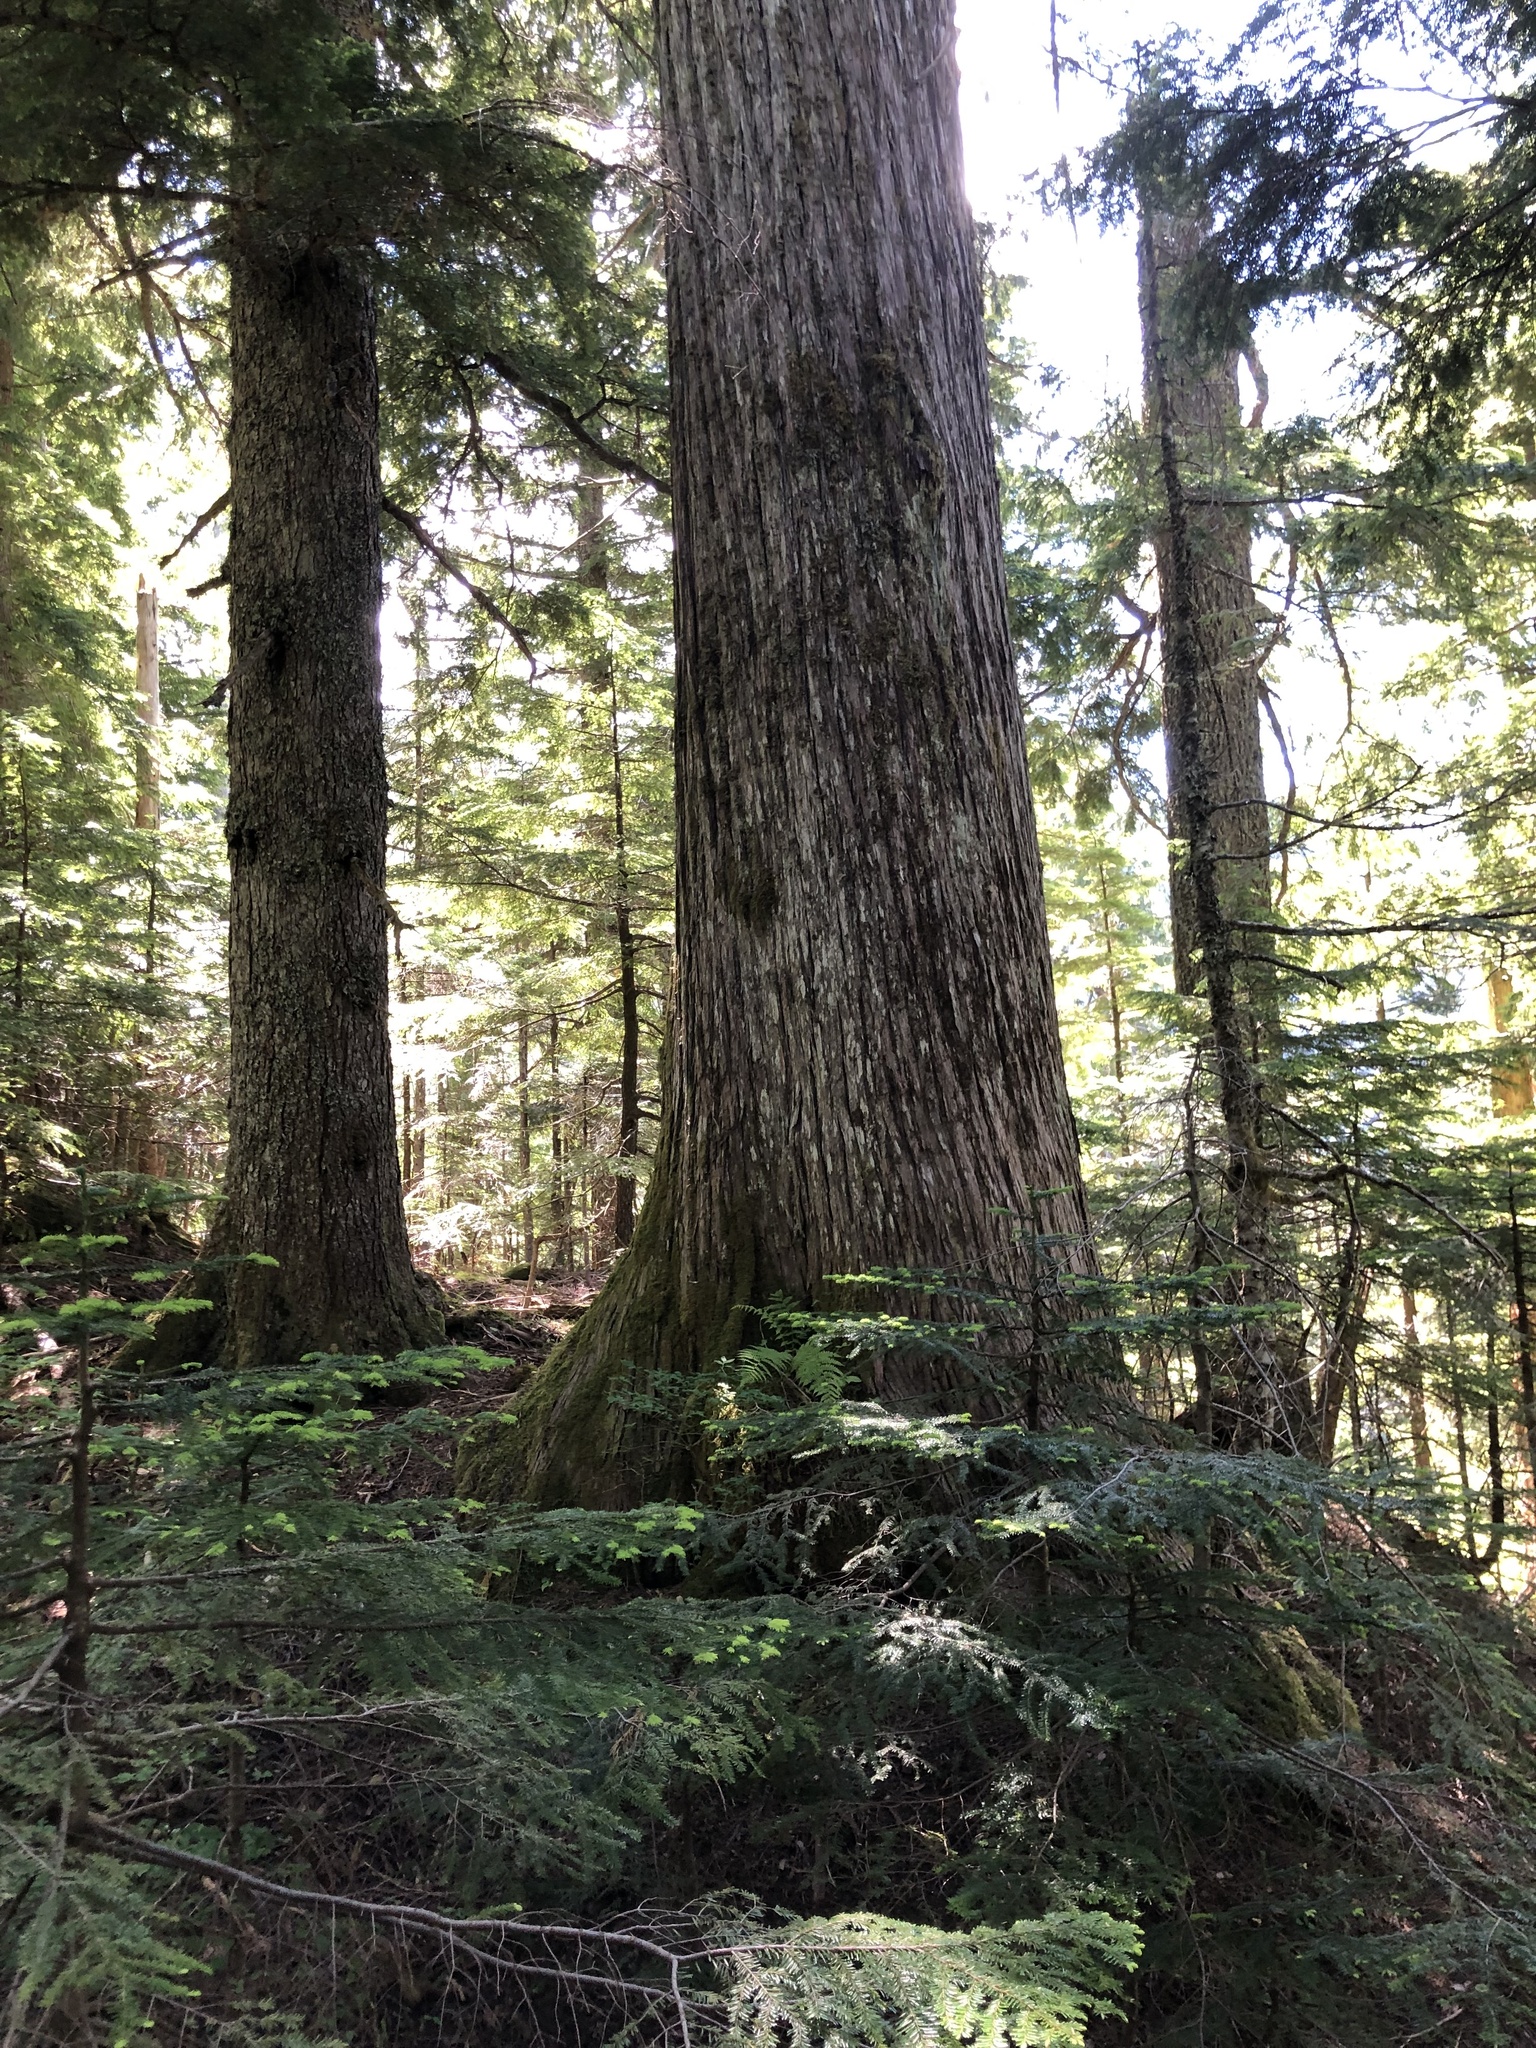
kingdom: Plantae
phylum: Tracheophyta
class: Pinopsida
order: Pinales
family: Cupressaceae
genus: Xanthocyparis
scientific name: Xanthocyparis nootkatensis
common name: Nootka cypress
